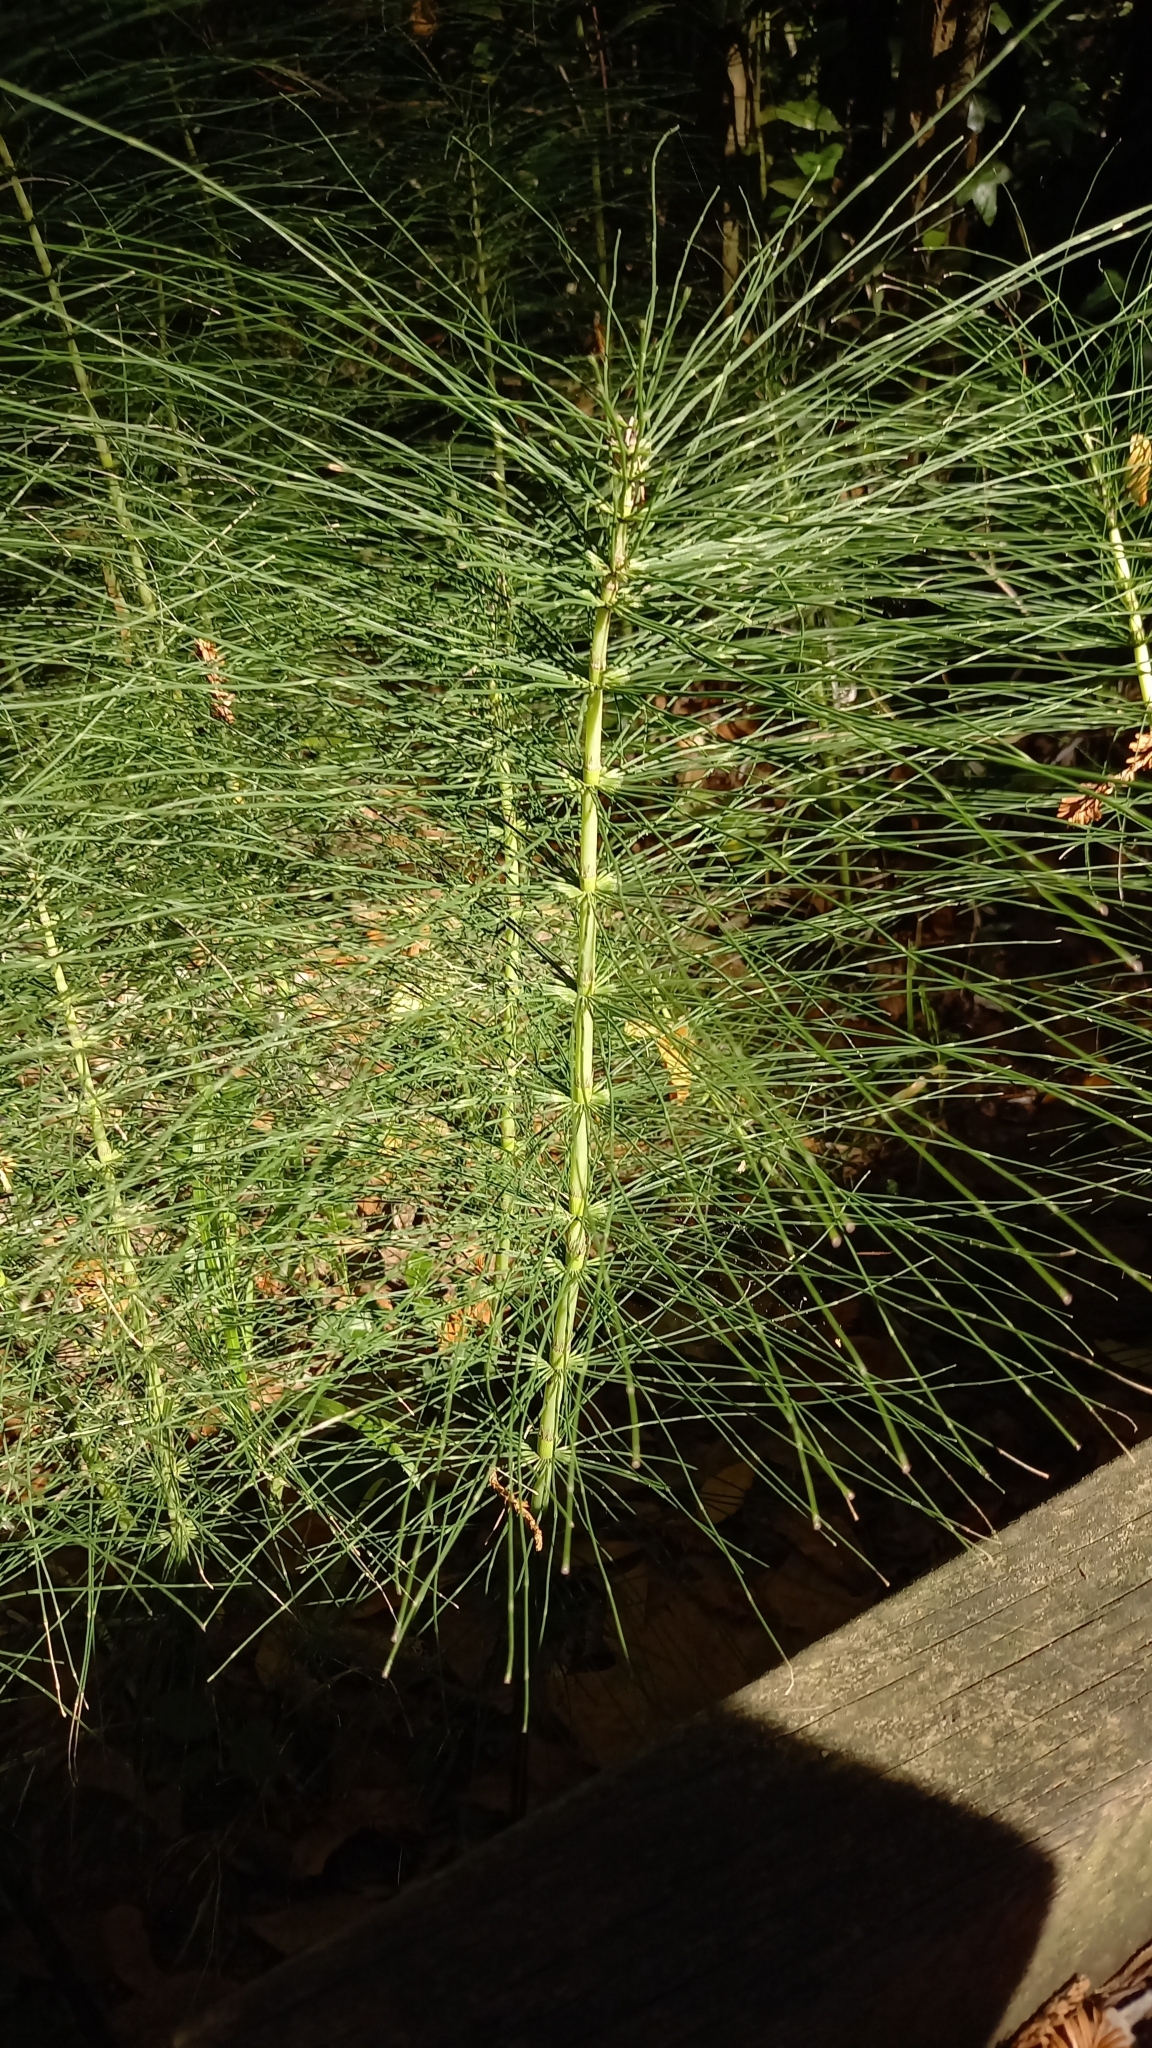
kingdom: Plantae
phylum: Tracheophyta
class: Polypodiopsida
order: Equisetales
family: Equisetaceae
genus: Equisetum
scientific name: Equisetum telmateia
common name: Great horsetail
